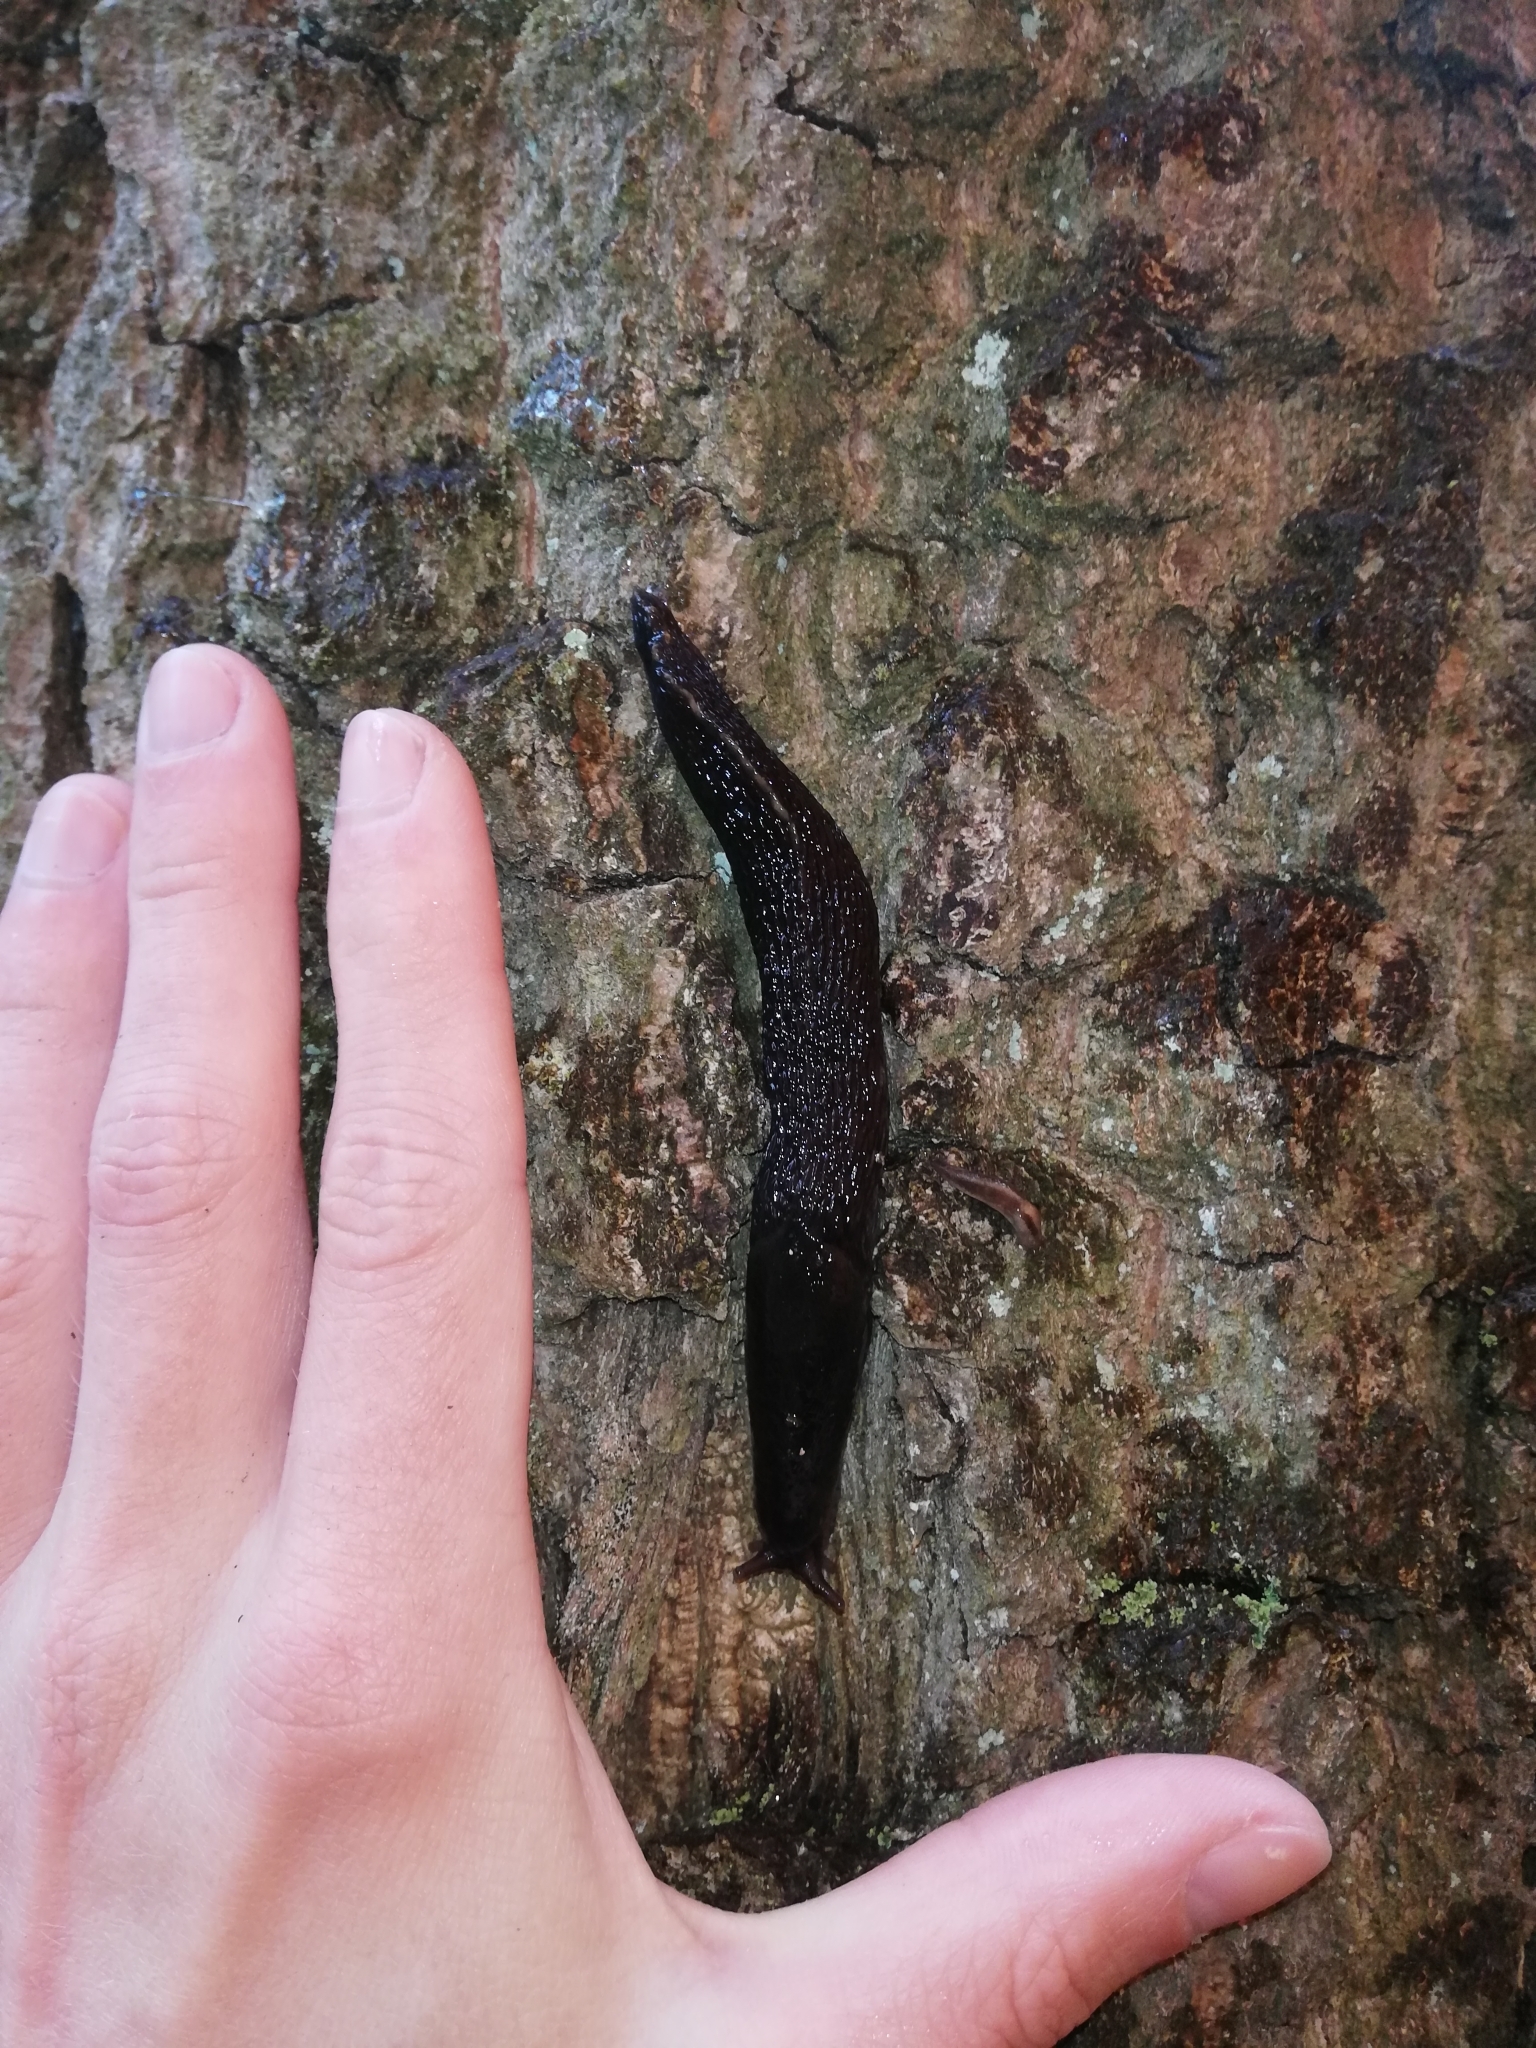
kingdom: Animalia
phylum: Mollusca
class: Gastropoda
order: Stylommatophora
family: Limacidae
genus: Lehmannia
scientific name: Lehmannia marginata
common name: Tree slug
